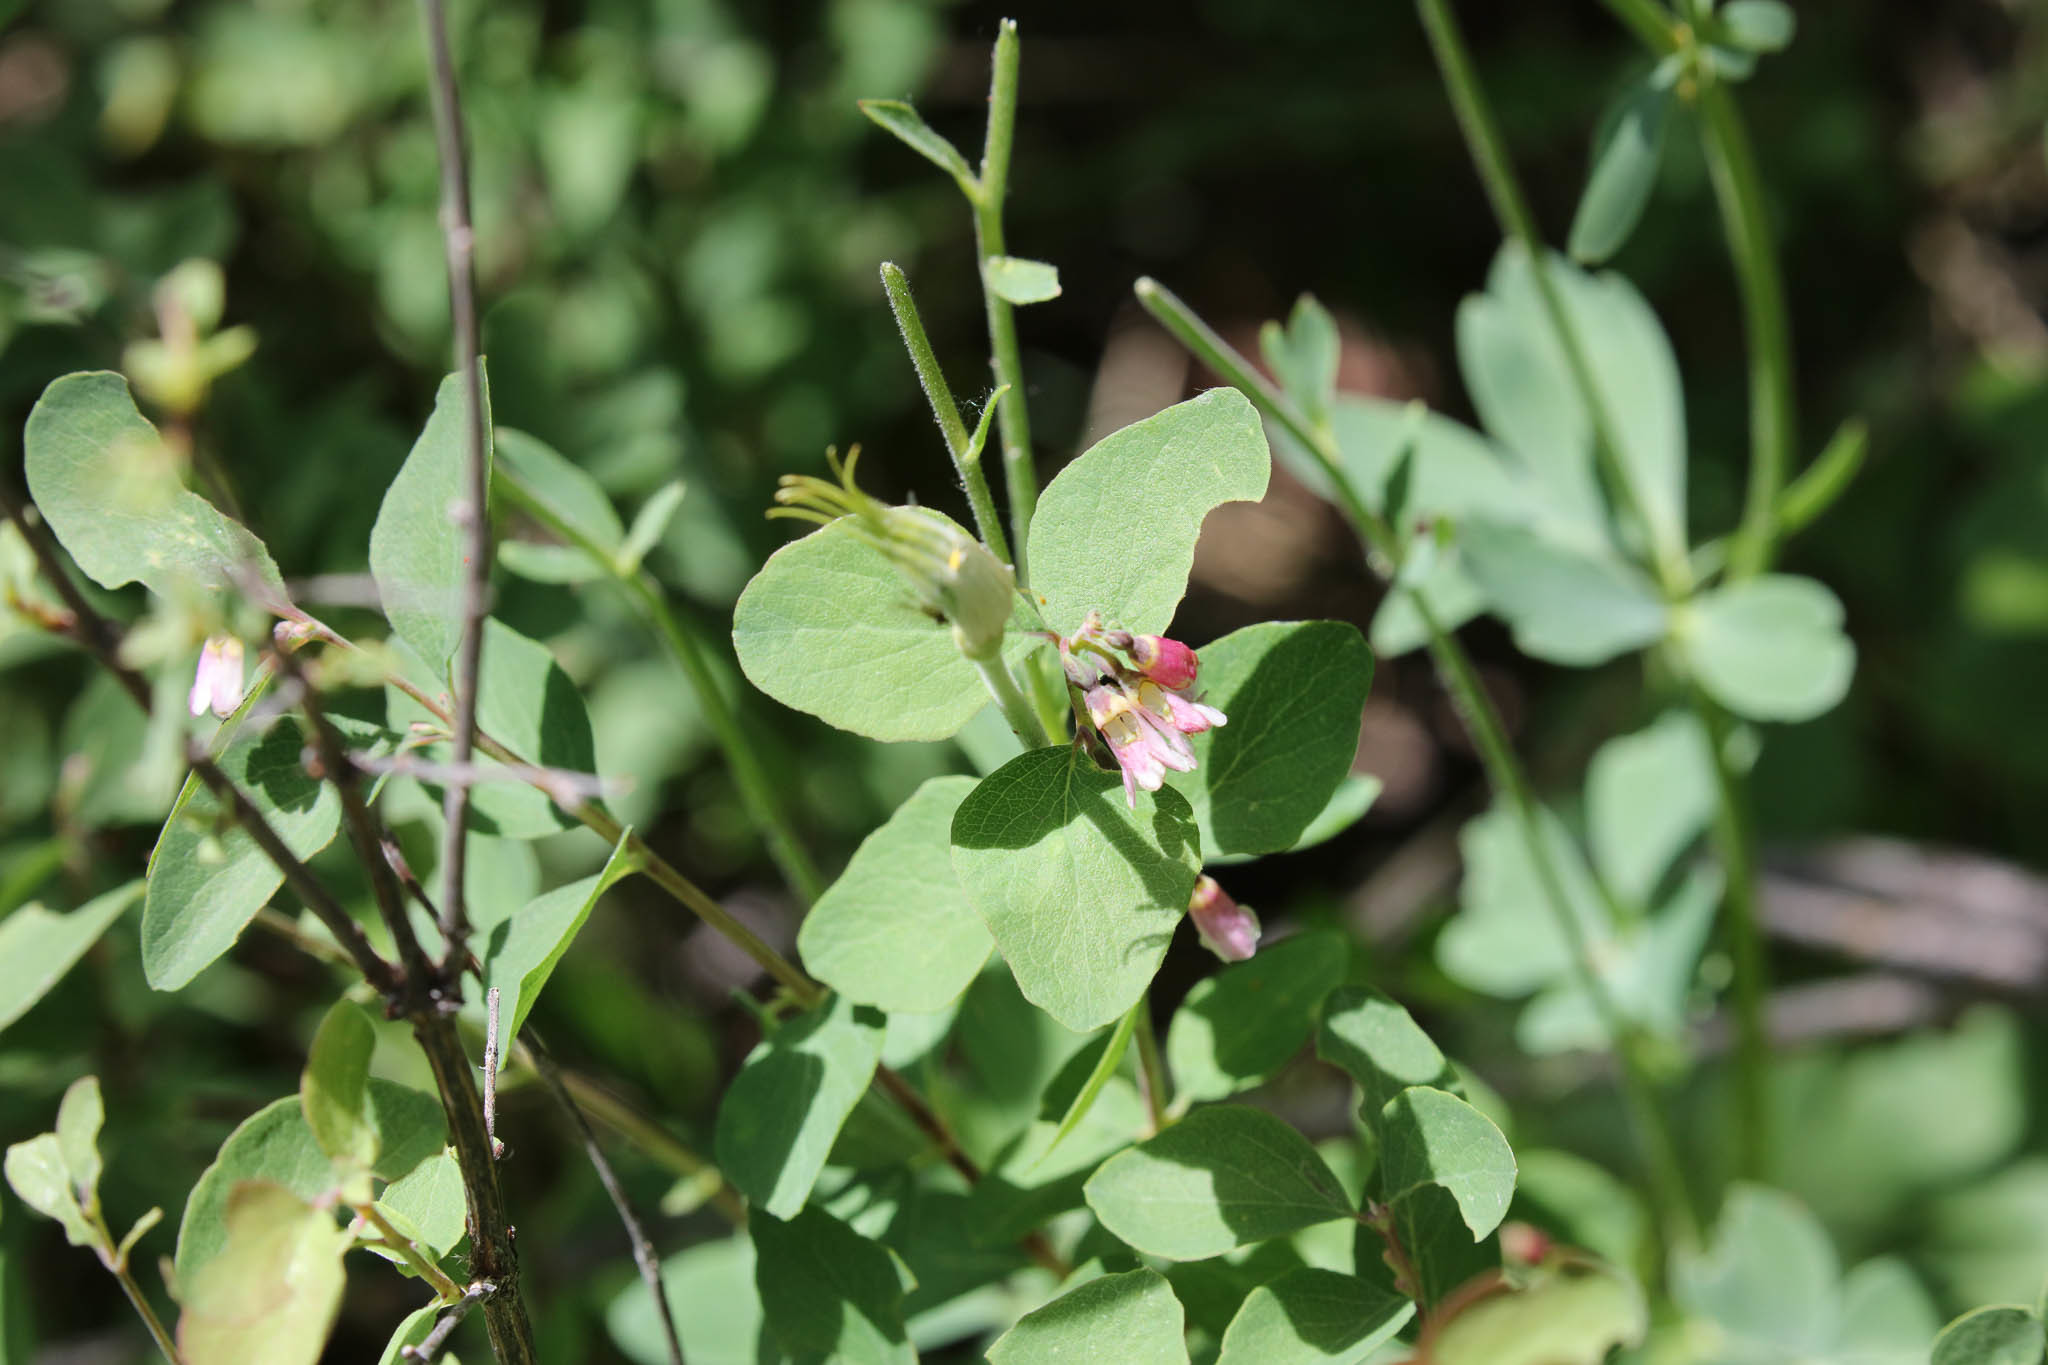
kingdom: Plantae
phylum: Tracheophyta
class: Magnoliopsida
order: Dipsacales
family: Caprifoliaceae
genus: Symphoricarpos
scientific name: Symphoricarpos rotundifolius
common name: Round-leaved snowberry
